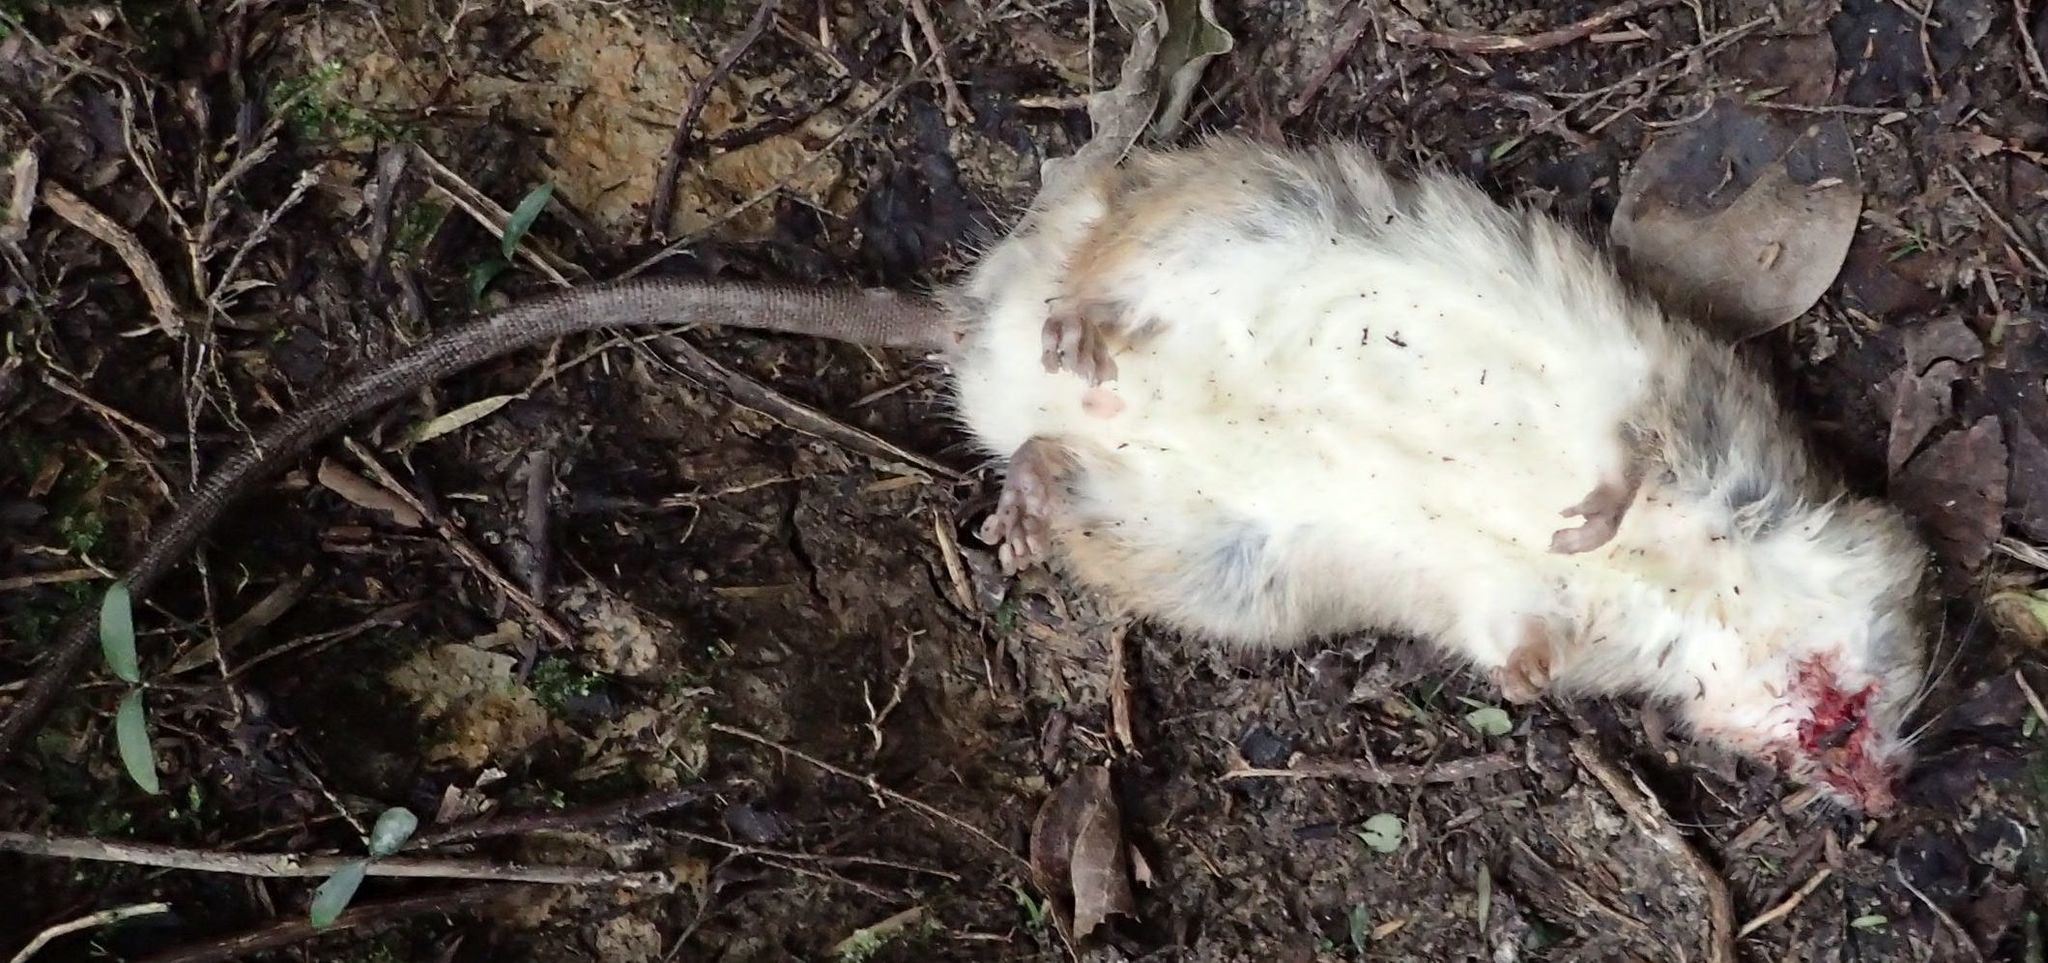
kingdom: Animalia
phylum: Chordata
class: Mammalia
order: Rodentia
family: Muridae
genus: Rattus
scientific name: Rattus rattus
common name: Black rat
